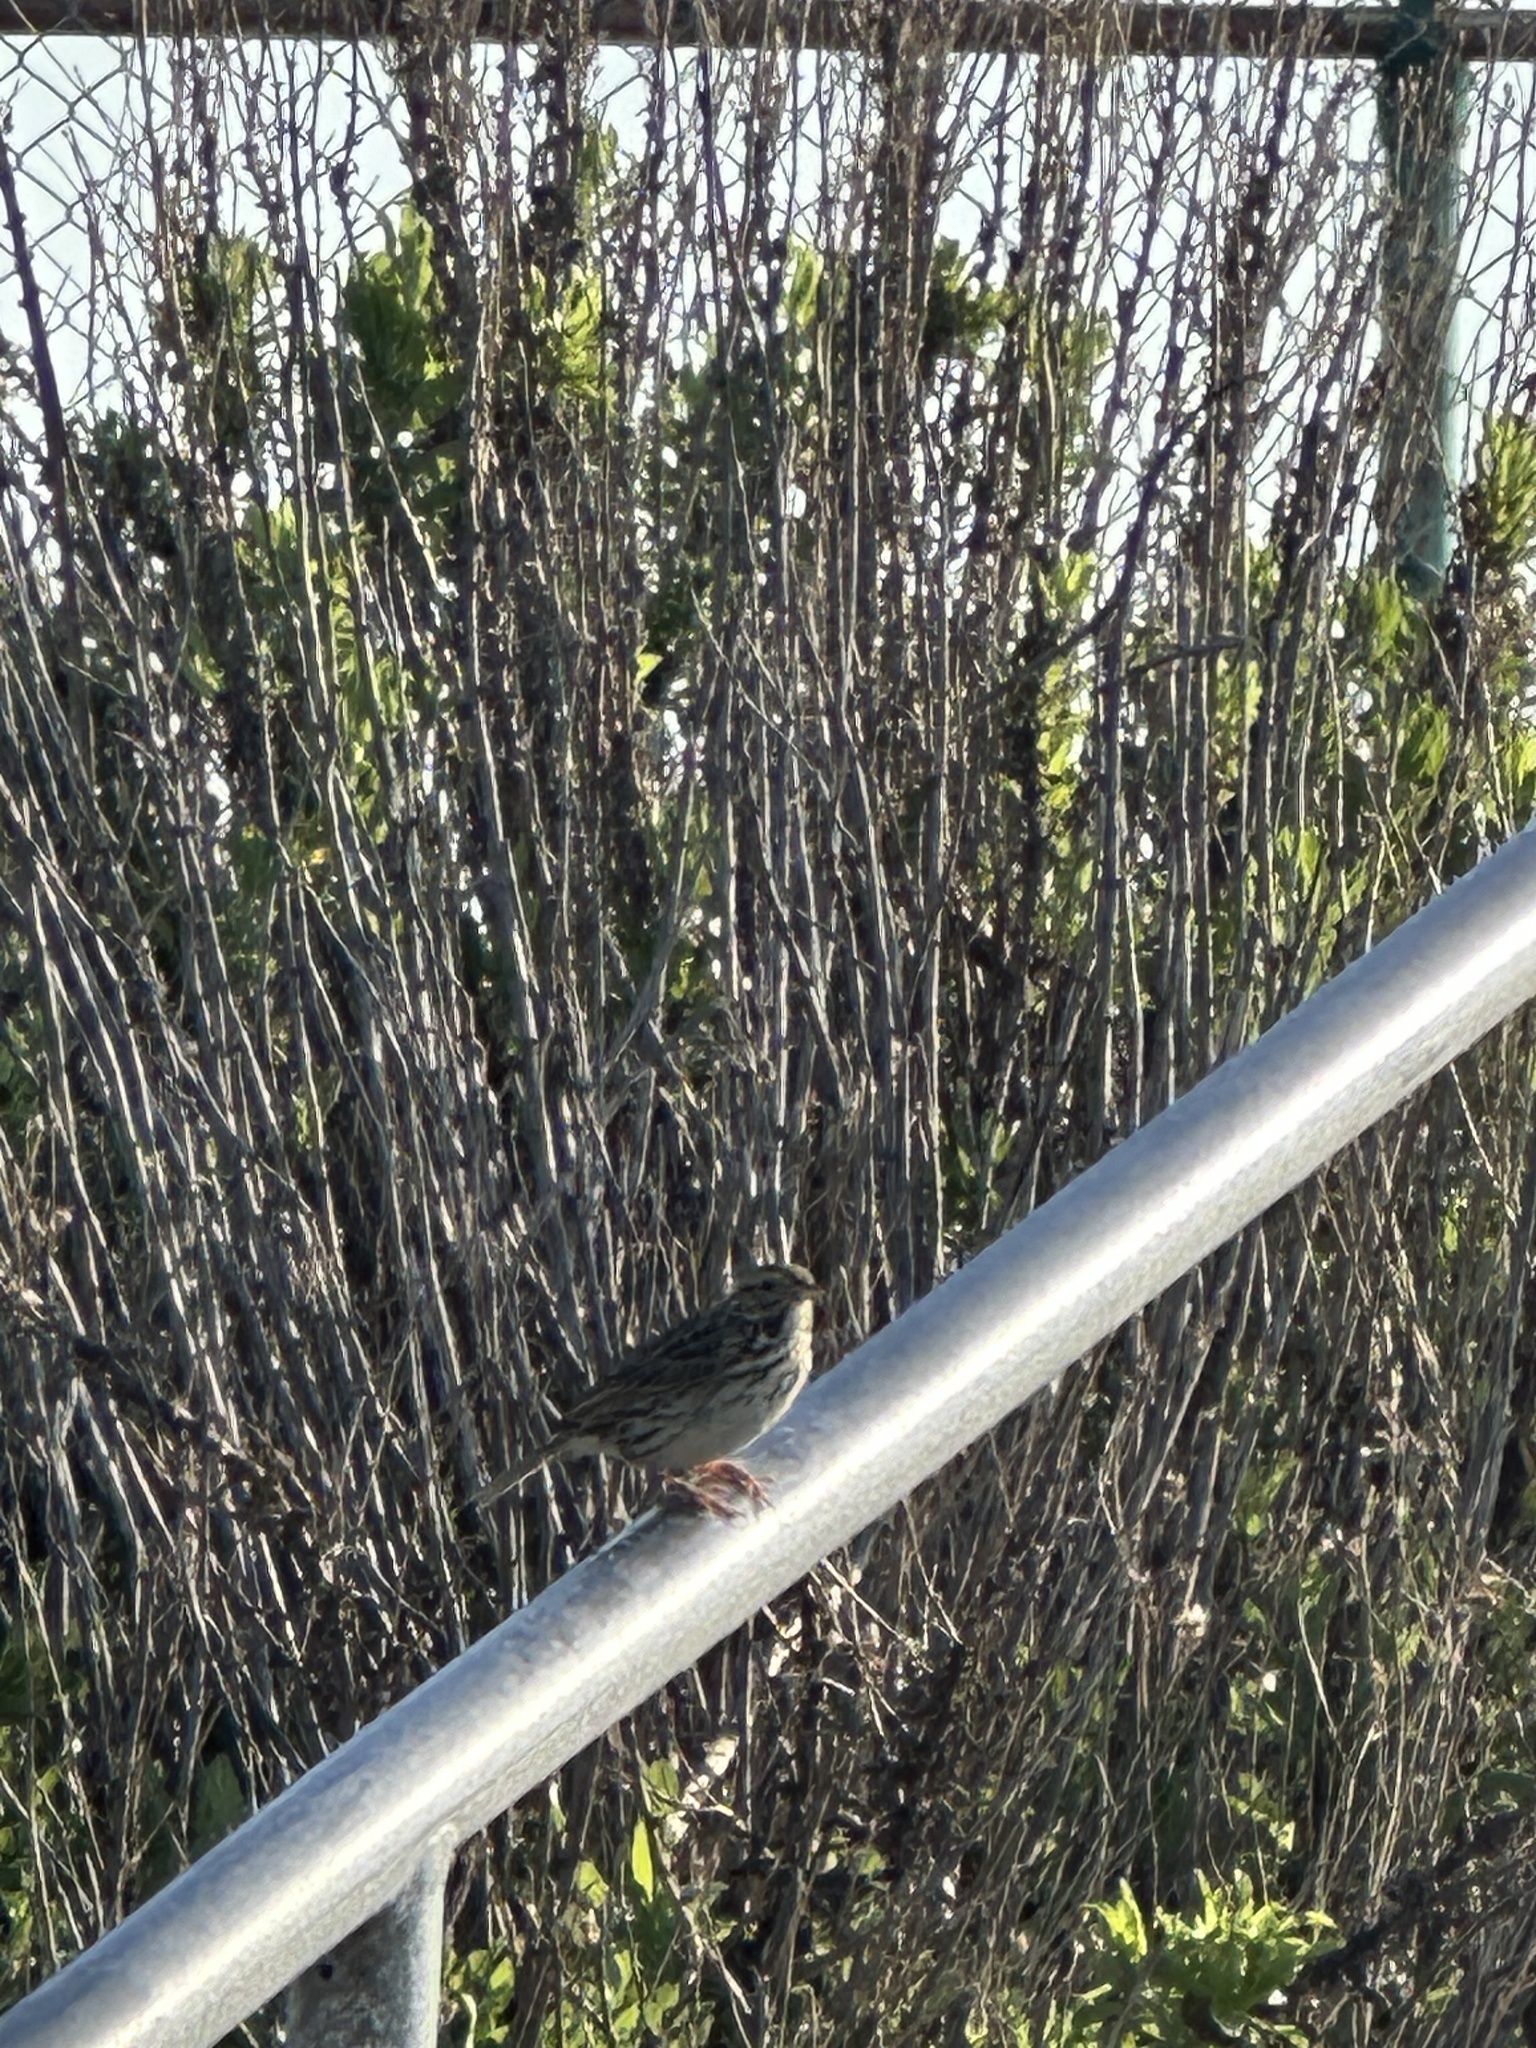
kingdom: Animalia
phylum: Chordata
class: Aves
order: Passeriformes
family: Passerellidae
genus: Passerculus
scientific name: Passerculus sandwichensis
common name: Savannah sparrow
